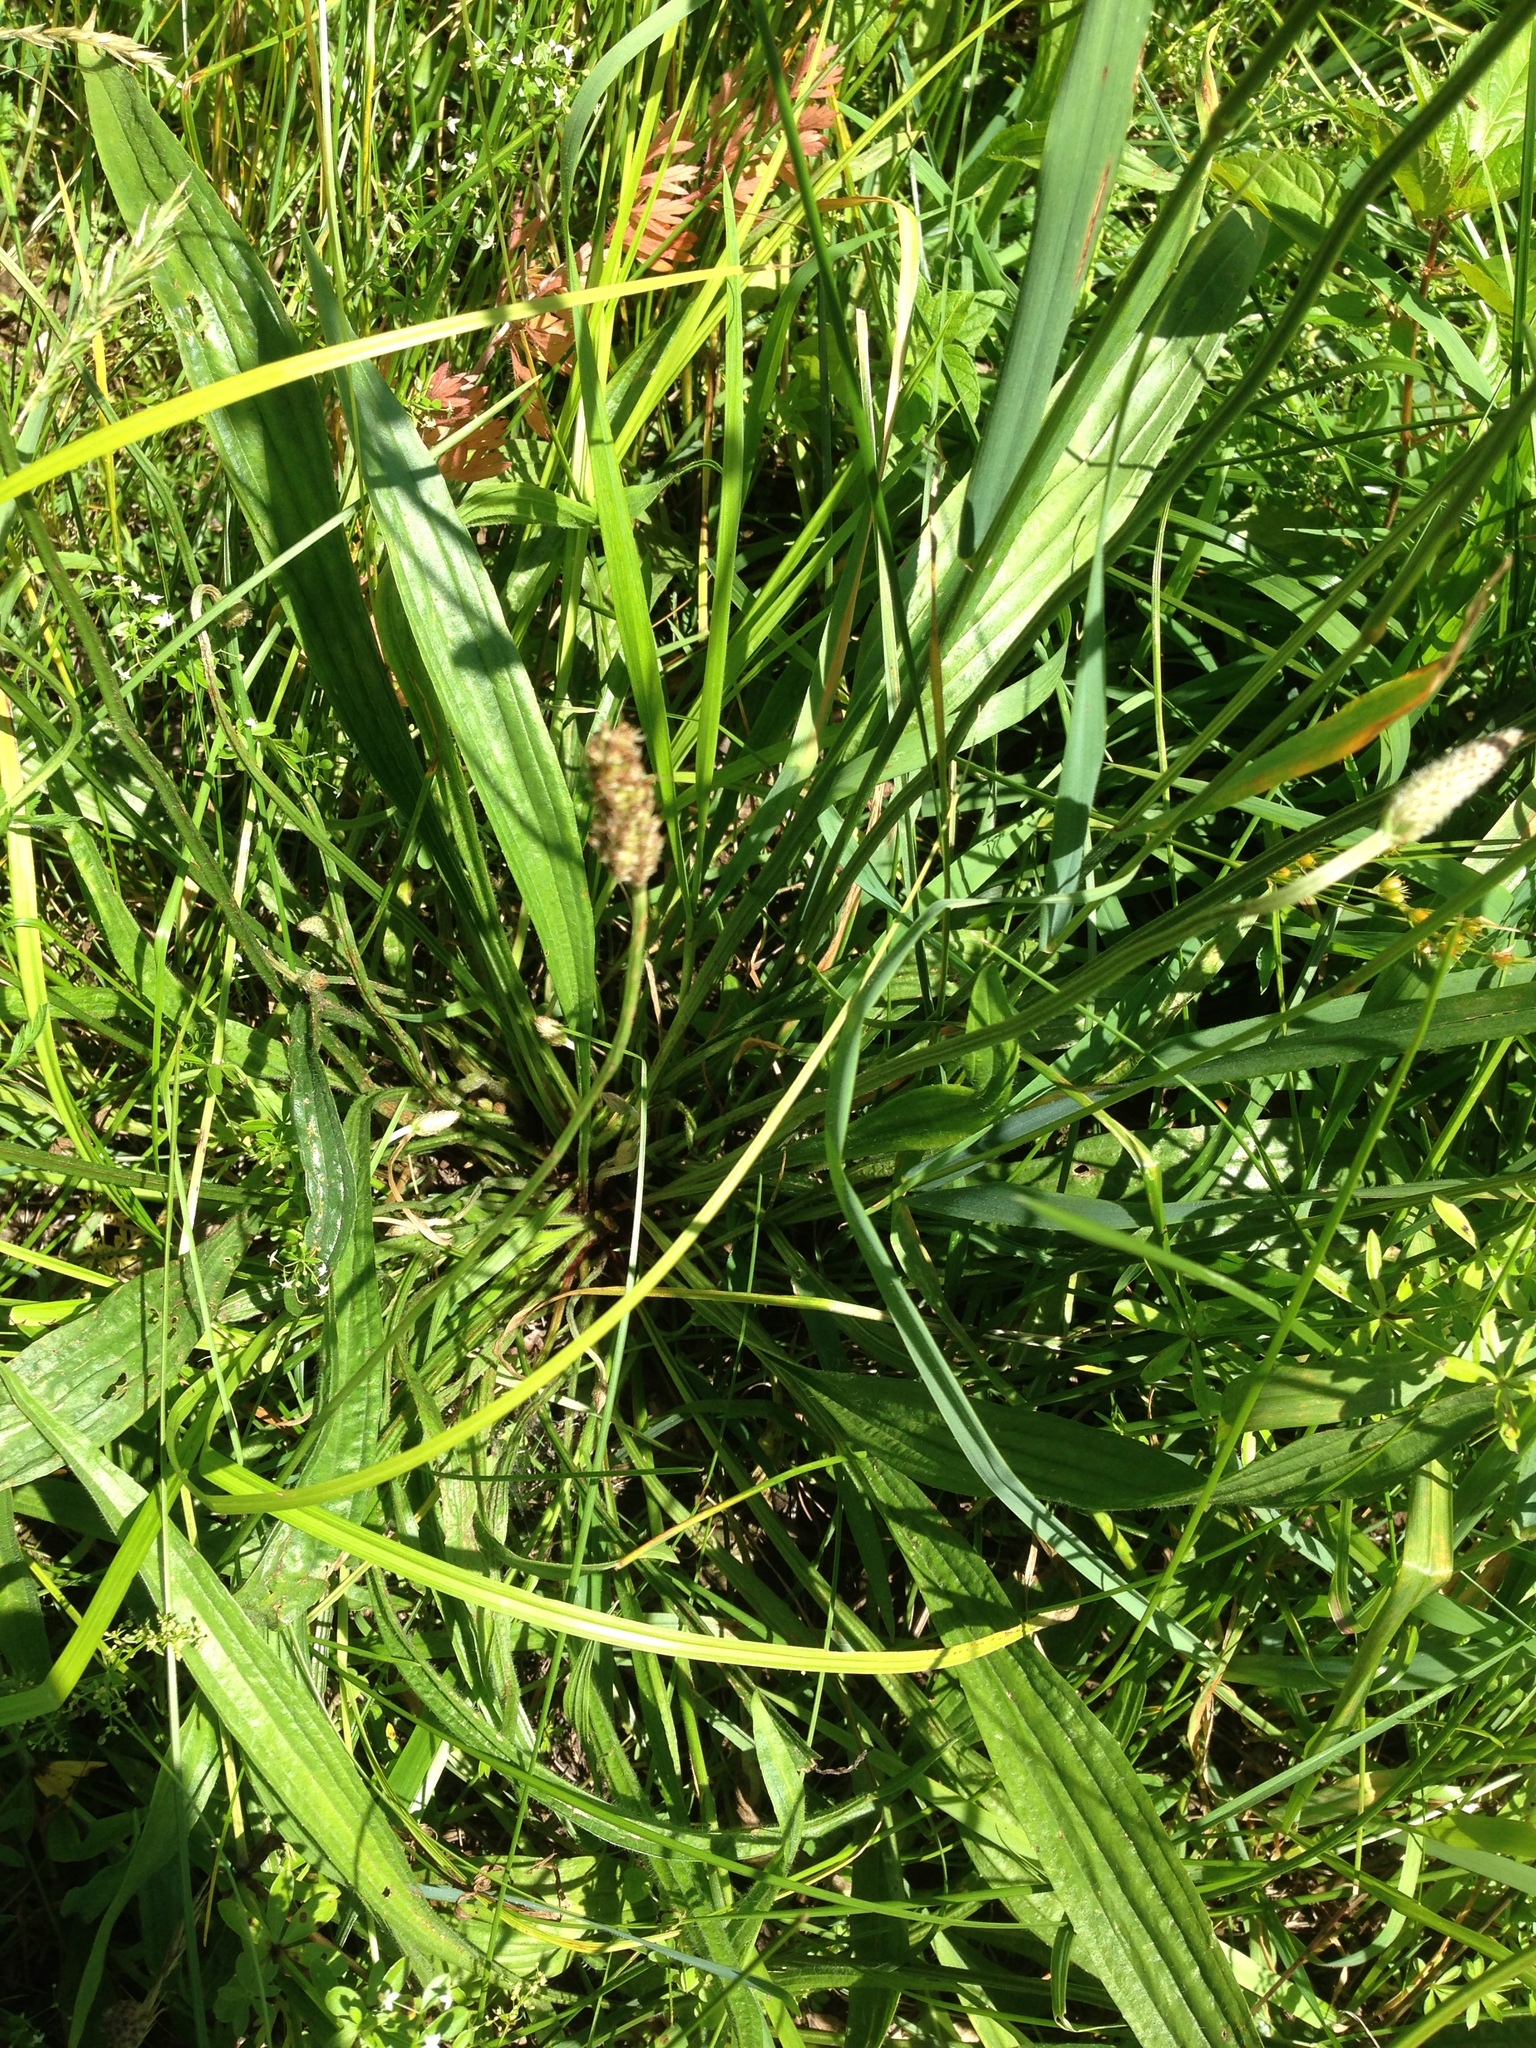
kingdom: Plantae
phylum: Tracheophyta
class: Magnoliopsida
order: Lamiales
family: Plantaginaceae
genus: Plantago
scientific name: Plantago lanceolata
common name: Ribwort plantain
